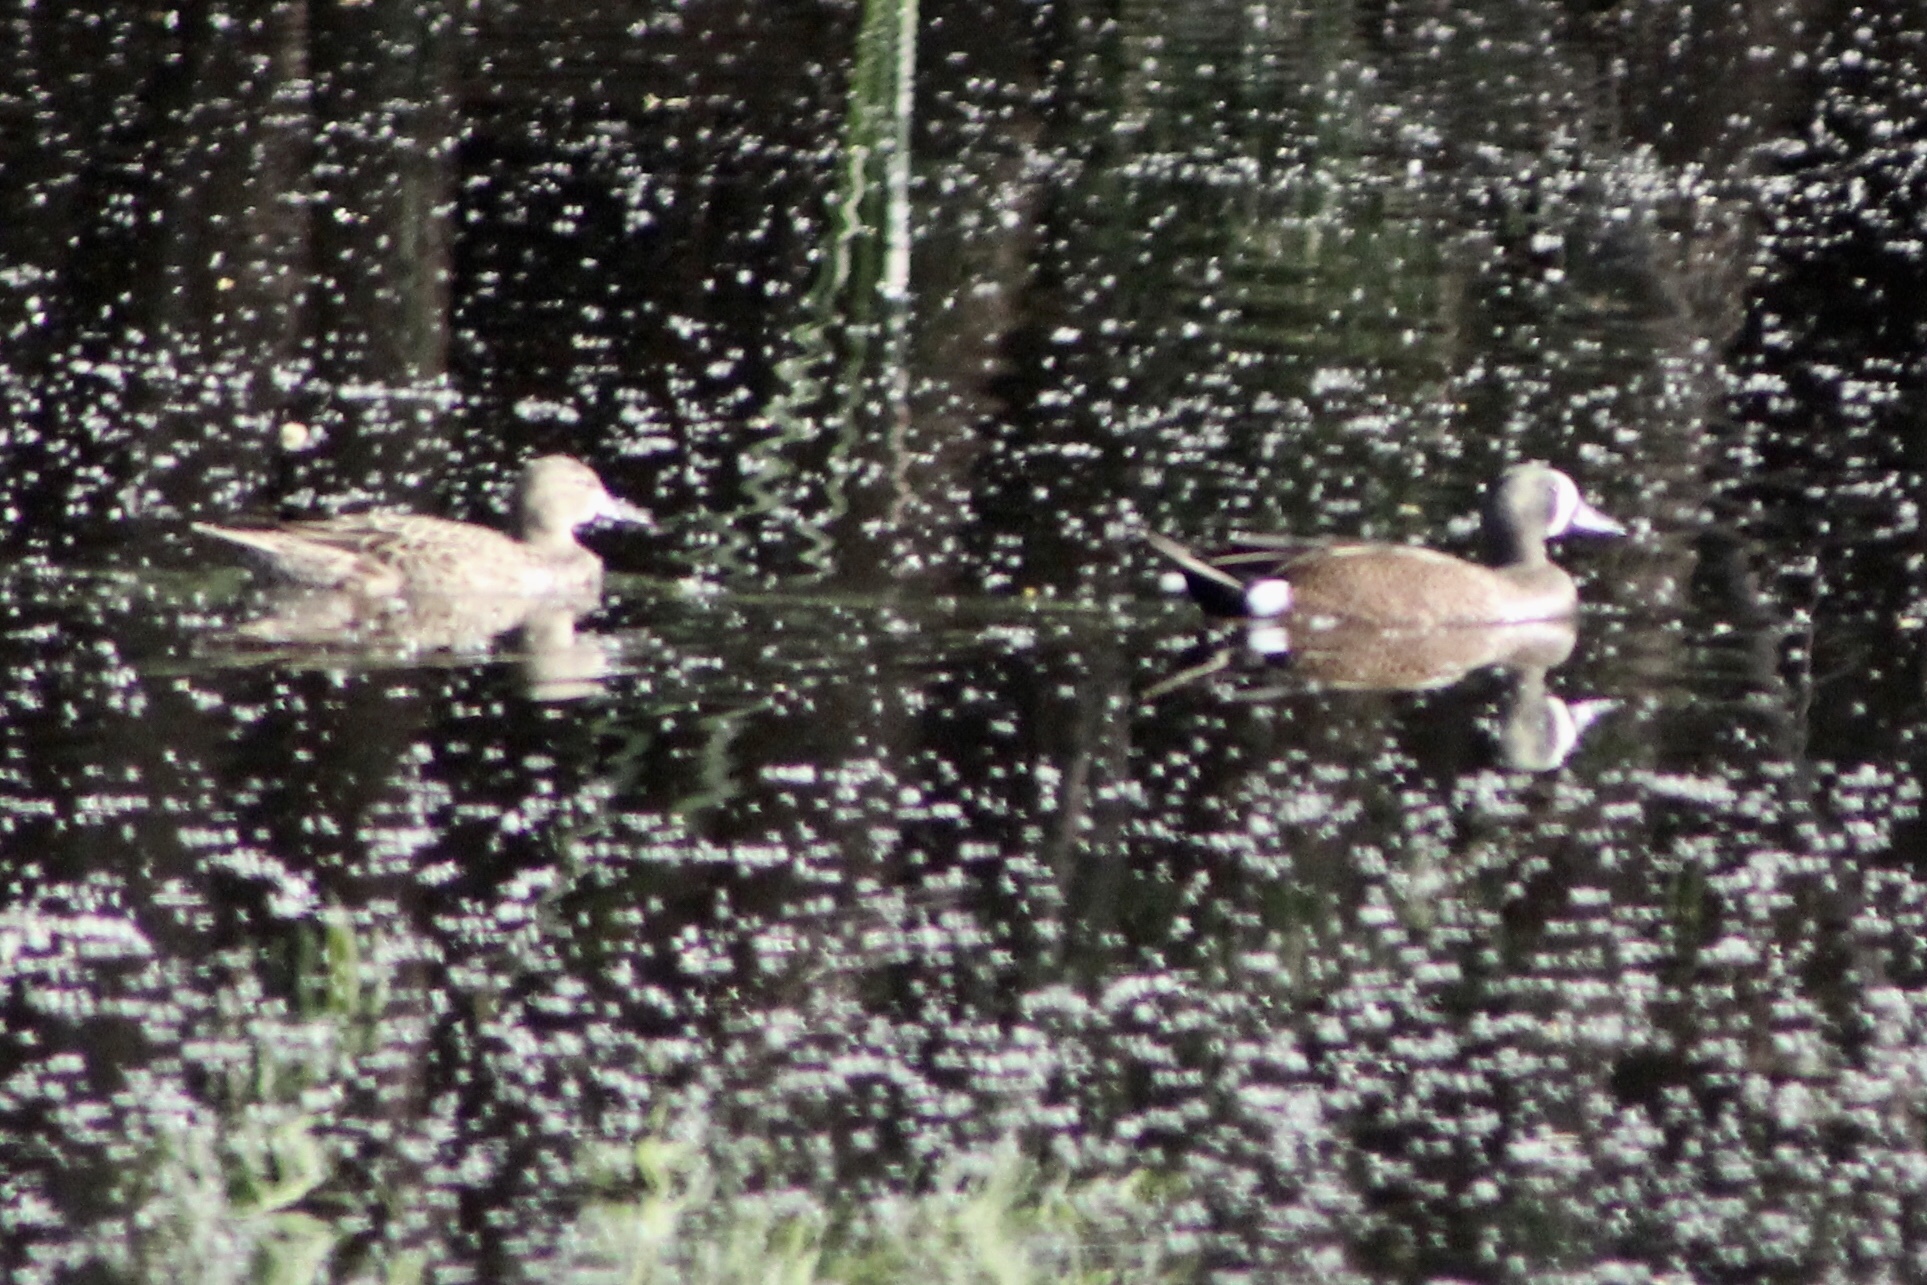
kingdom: Animalia
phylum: Chordata
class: Aves
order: Anseriformes
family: Anatidae
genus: Spatula
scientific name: Spatula discors
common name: Blue-winged teal
